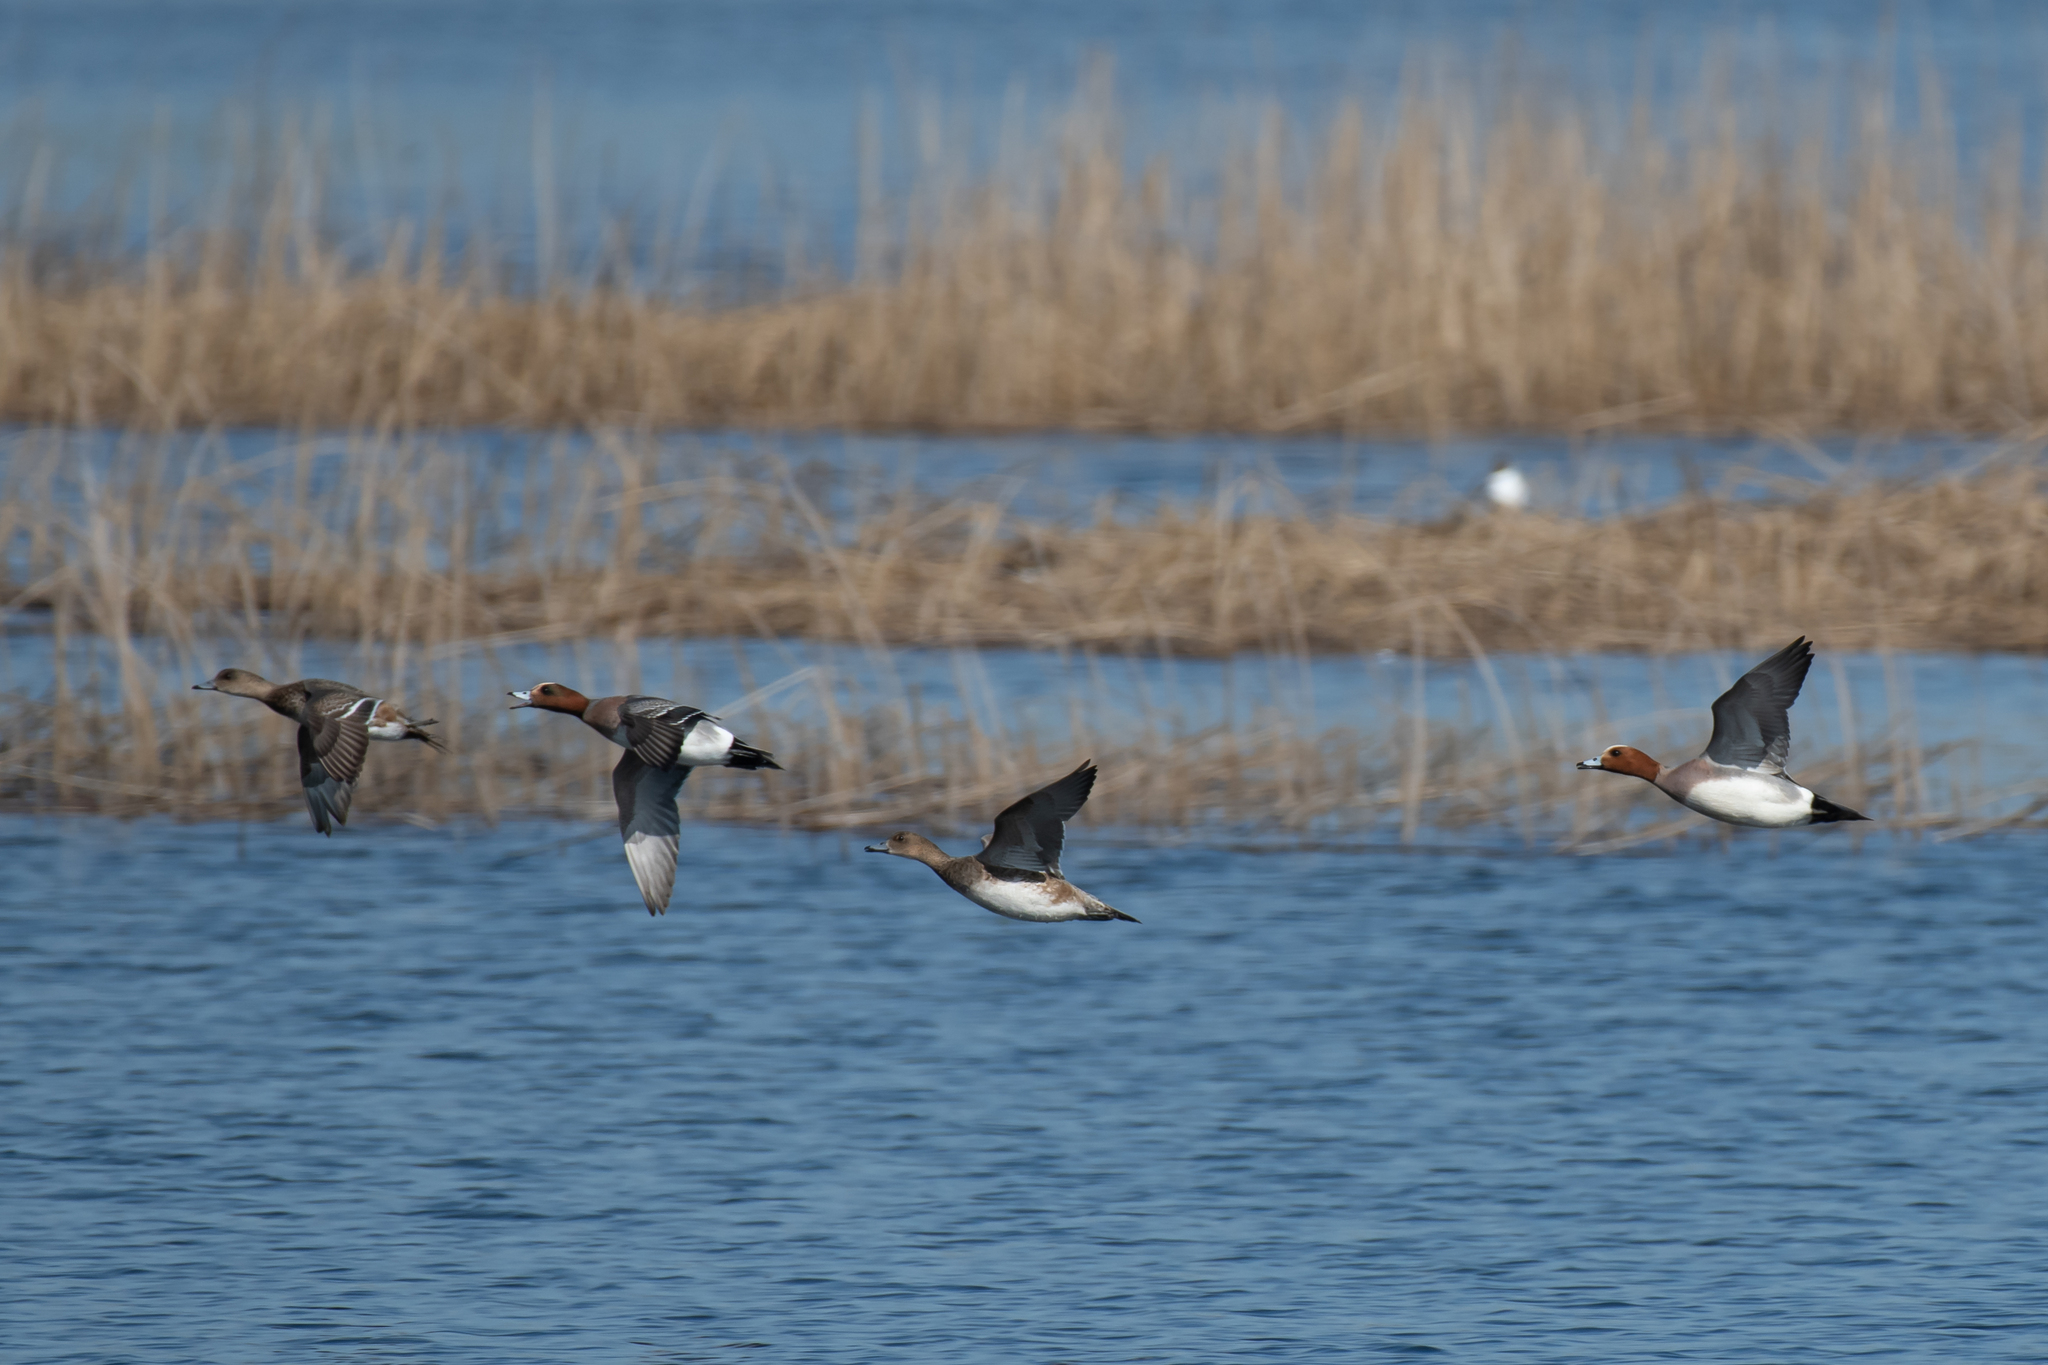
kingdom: Animalia
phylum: Chordata
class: Aves
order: Anseriformes
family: Anatidae
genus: Mareca
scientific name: Mareca penelope
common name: Eurasian wigeon
